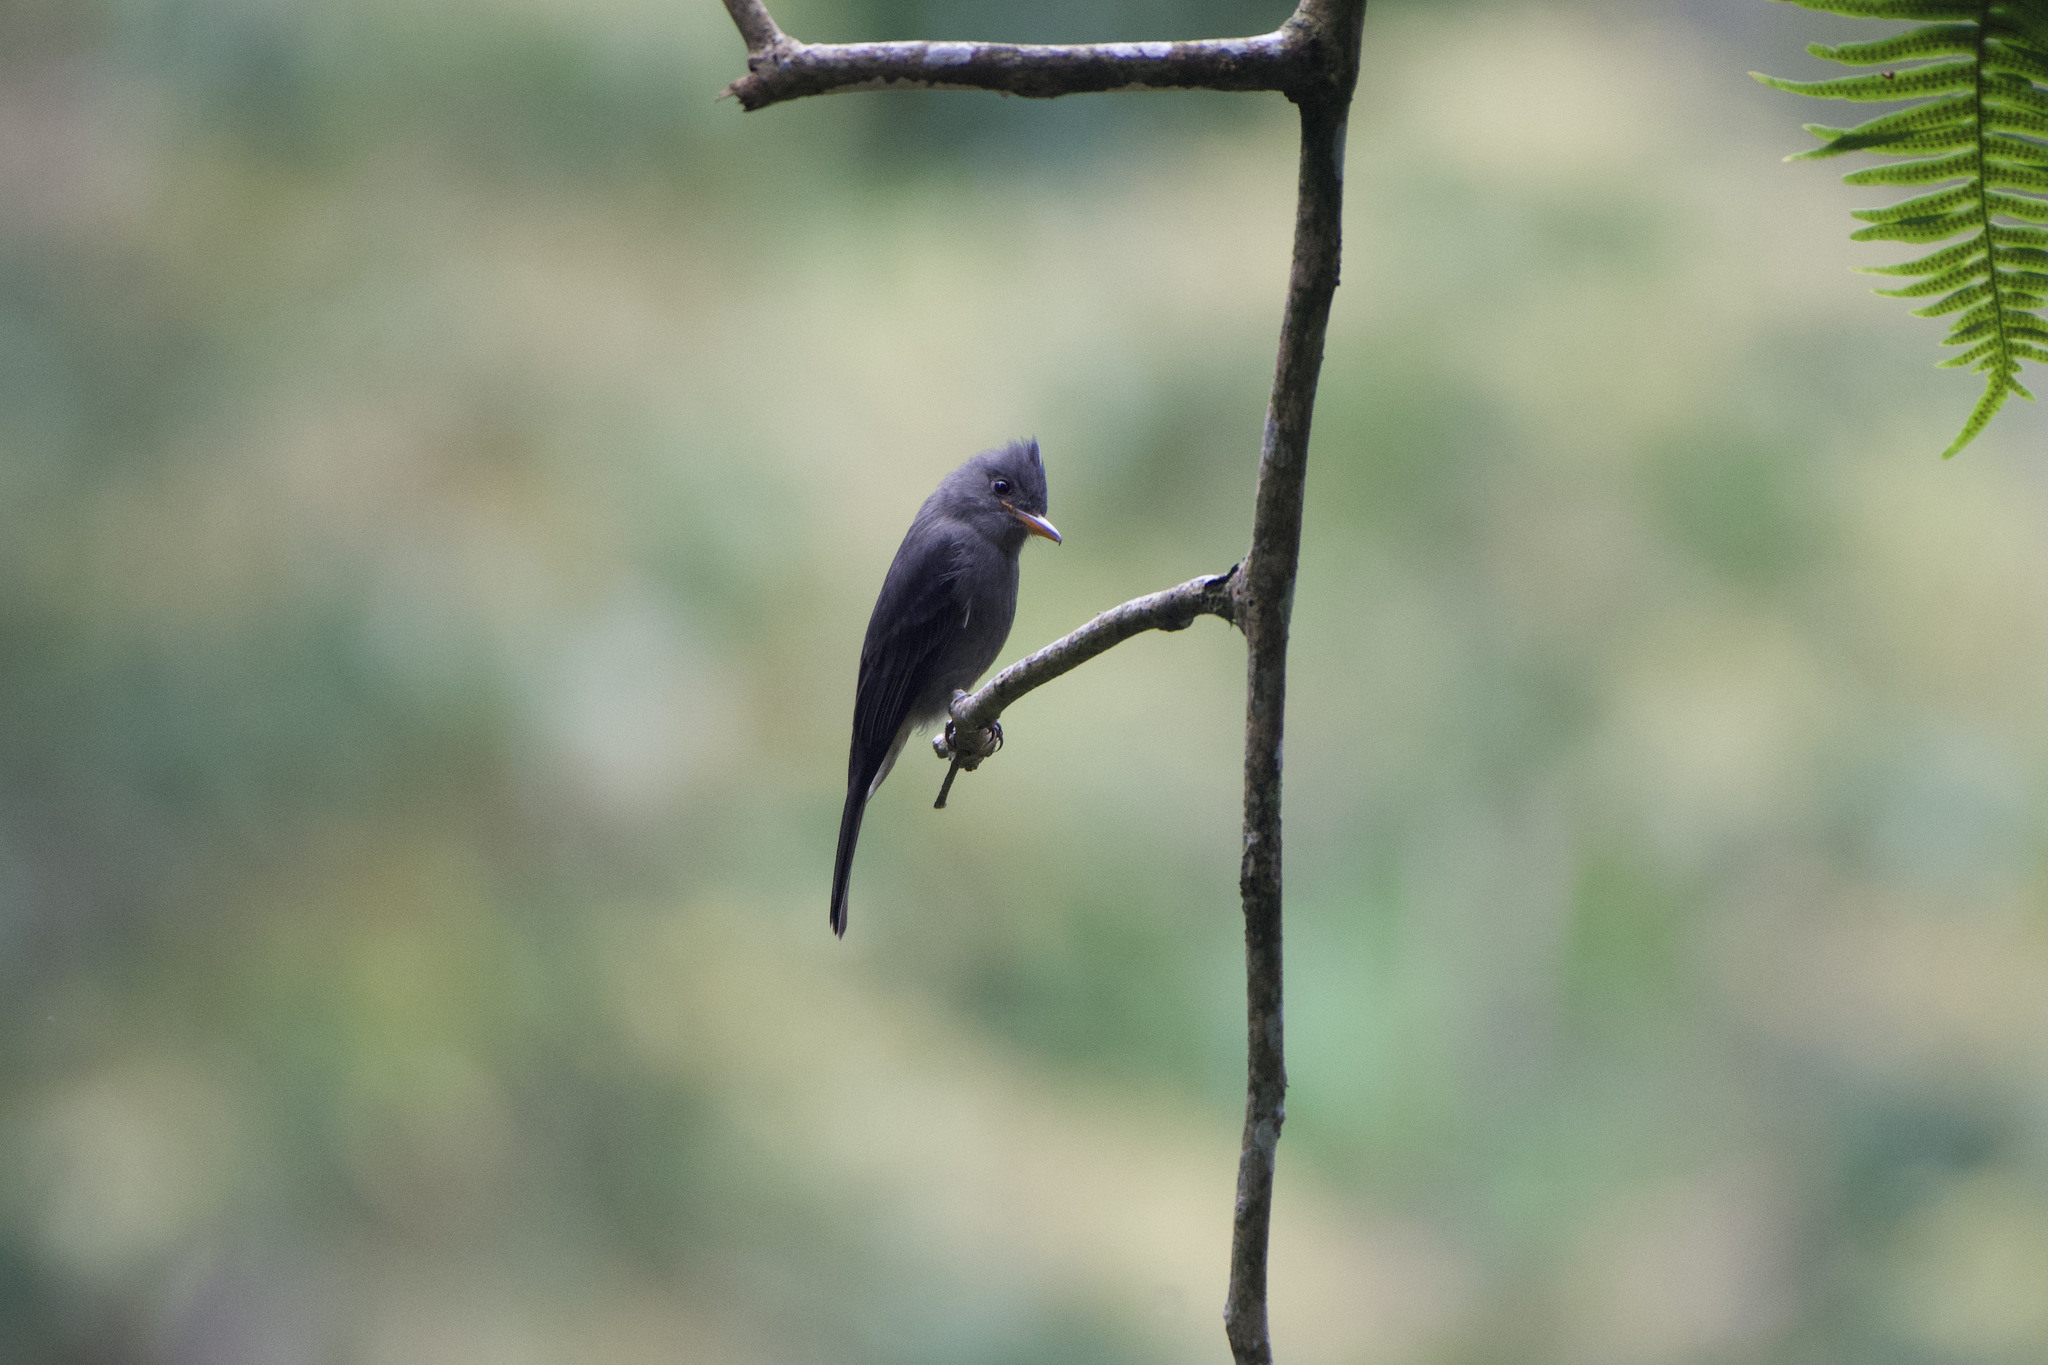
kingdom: Animalia
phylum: Chordata
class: Aves
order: Passeriformes
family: Tyrannidae
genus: Contopus
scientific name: Contopus lugubris
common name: Dark pewee
